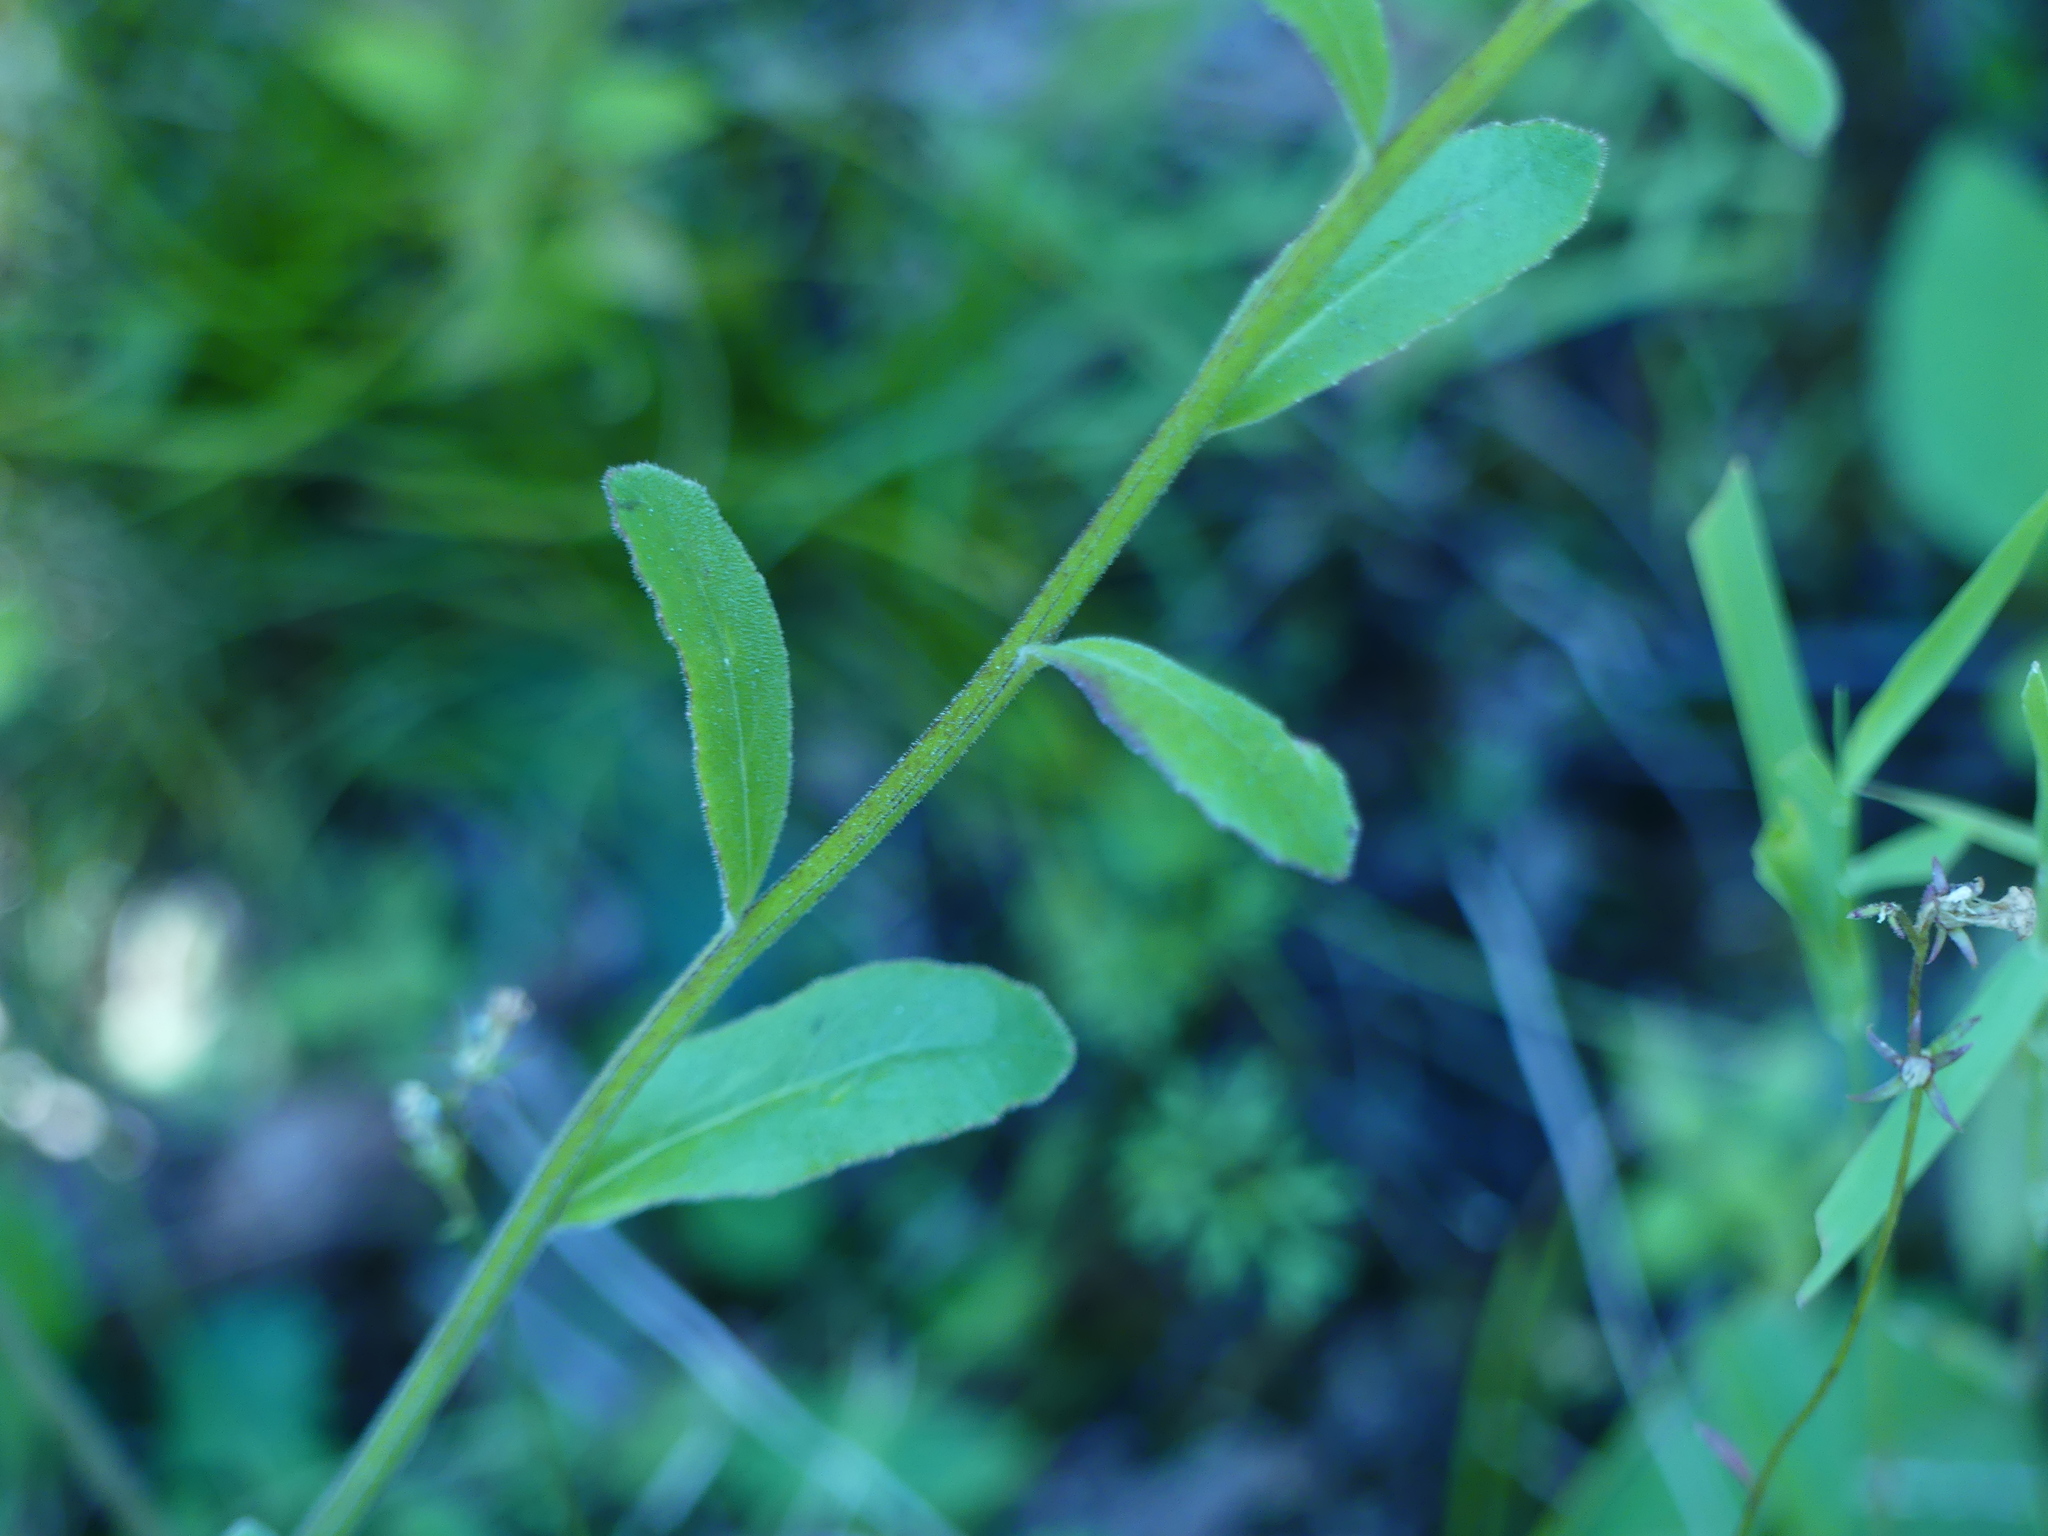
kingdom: Plantae
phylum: Tracheophyta
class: Magnoliopsida
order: Asterales
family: Campanulaceae
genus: Lobelia
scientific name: Lobelia spicata
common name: Pale-spike lobelia
